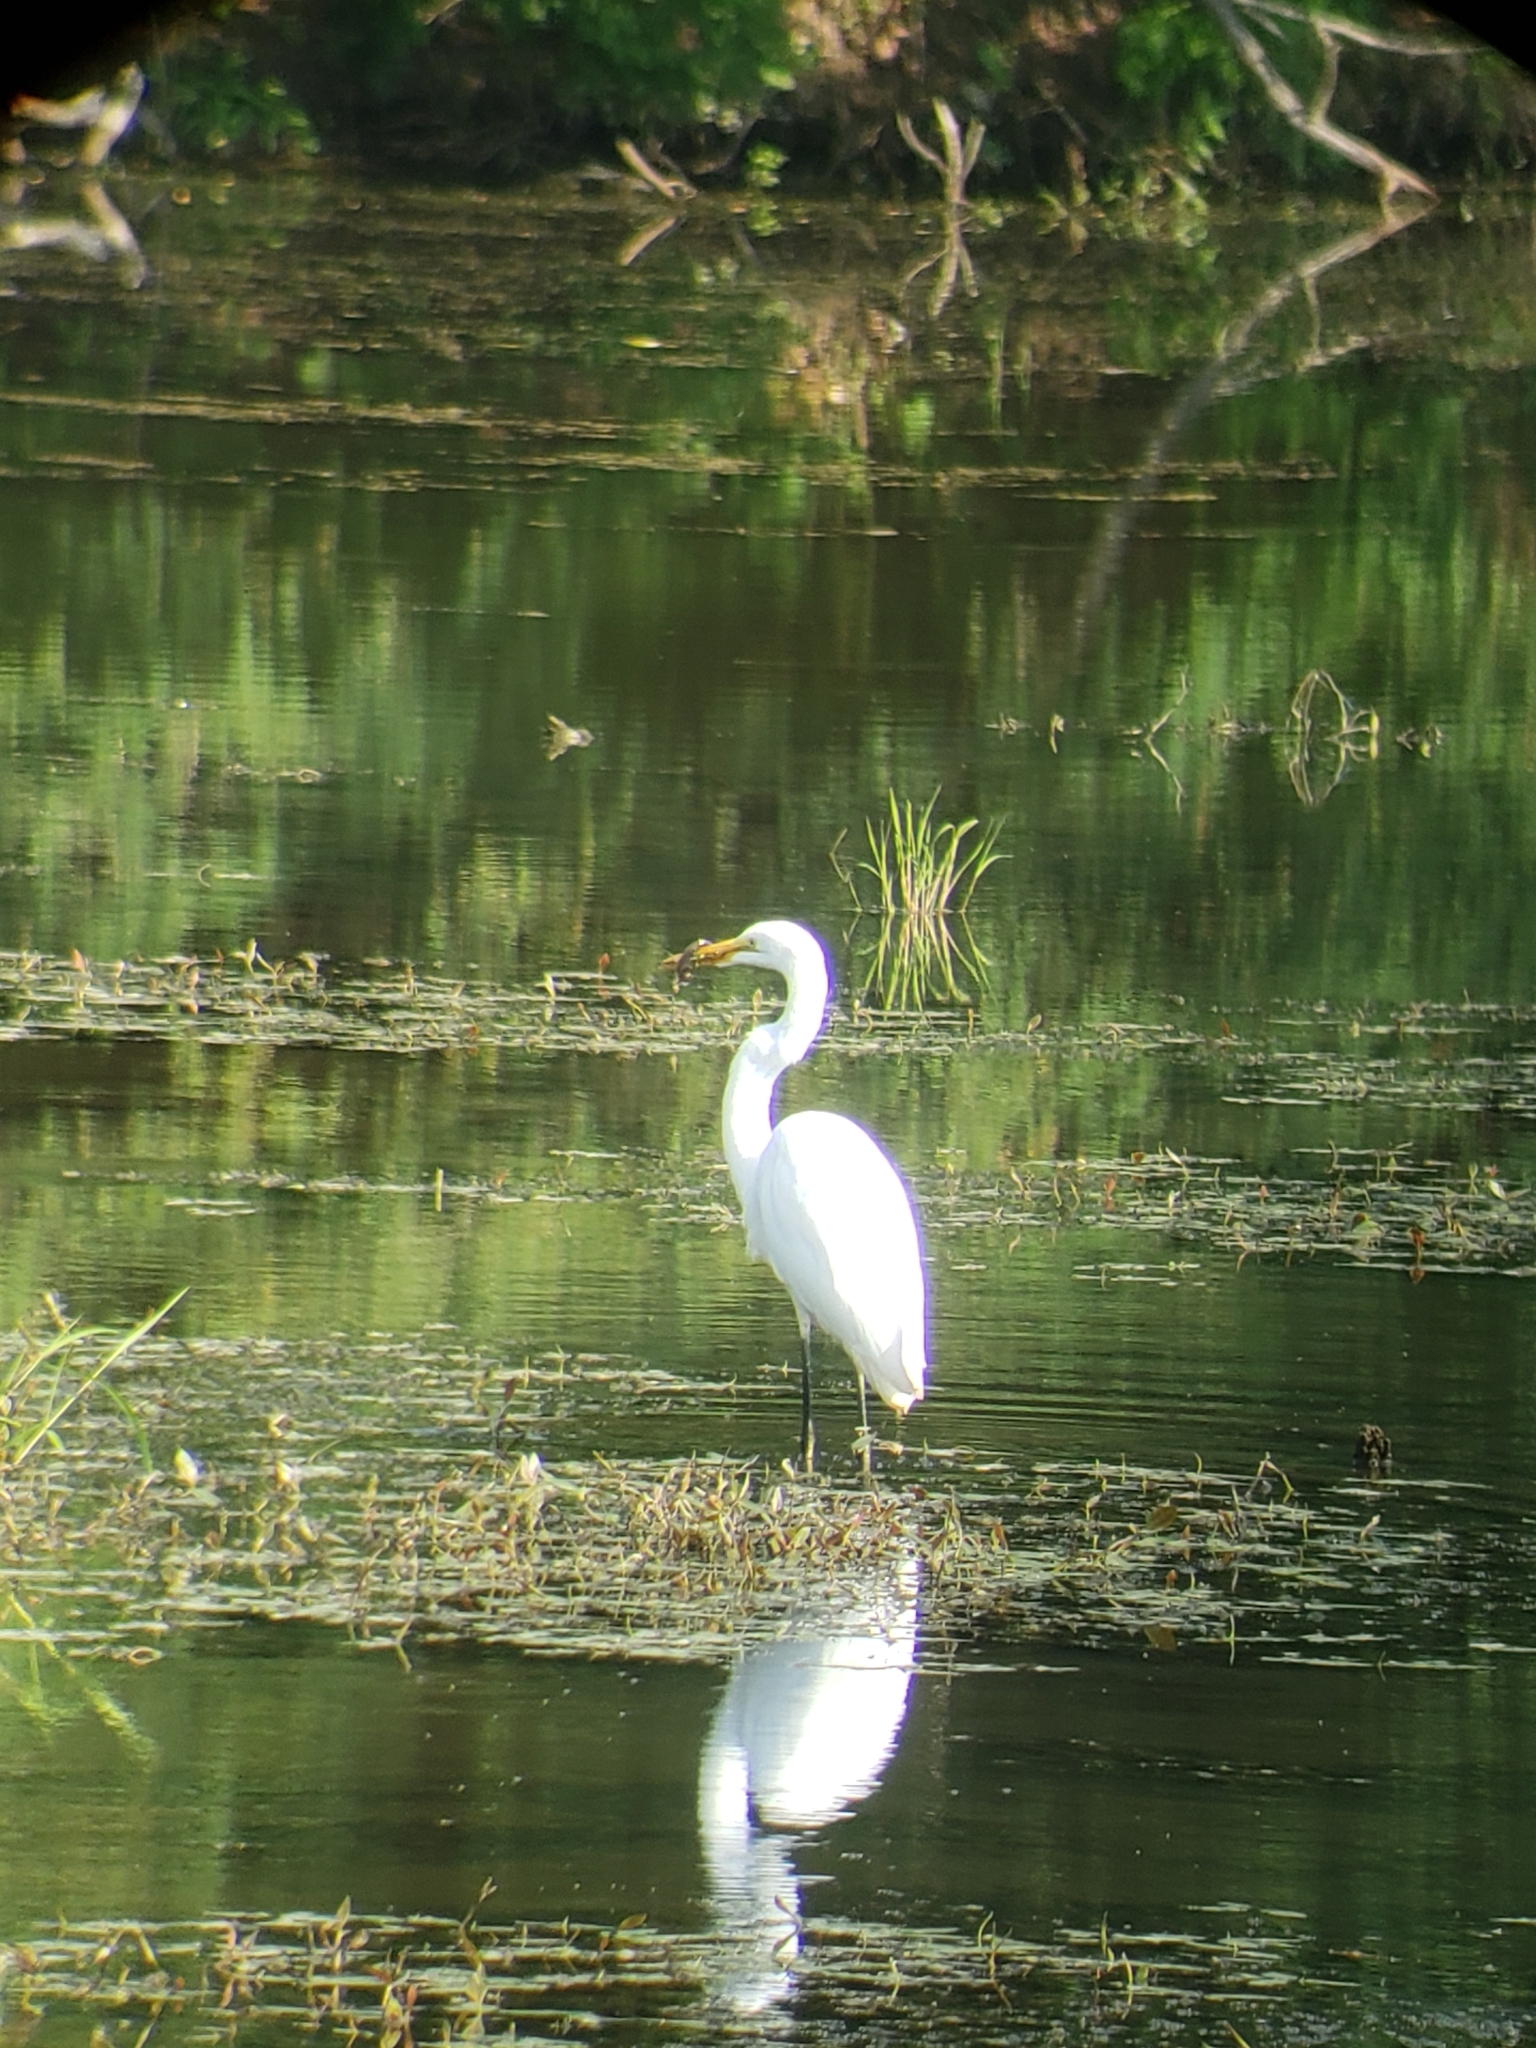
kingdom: Animalia
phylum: Chordata
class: Aves
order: Pelecaniformes
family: Ardeidae
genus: Ardea
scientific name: Ardea alba
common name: Great egret
